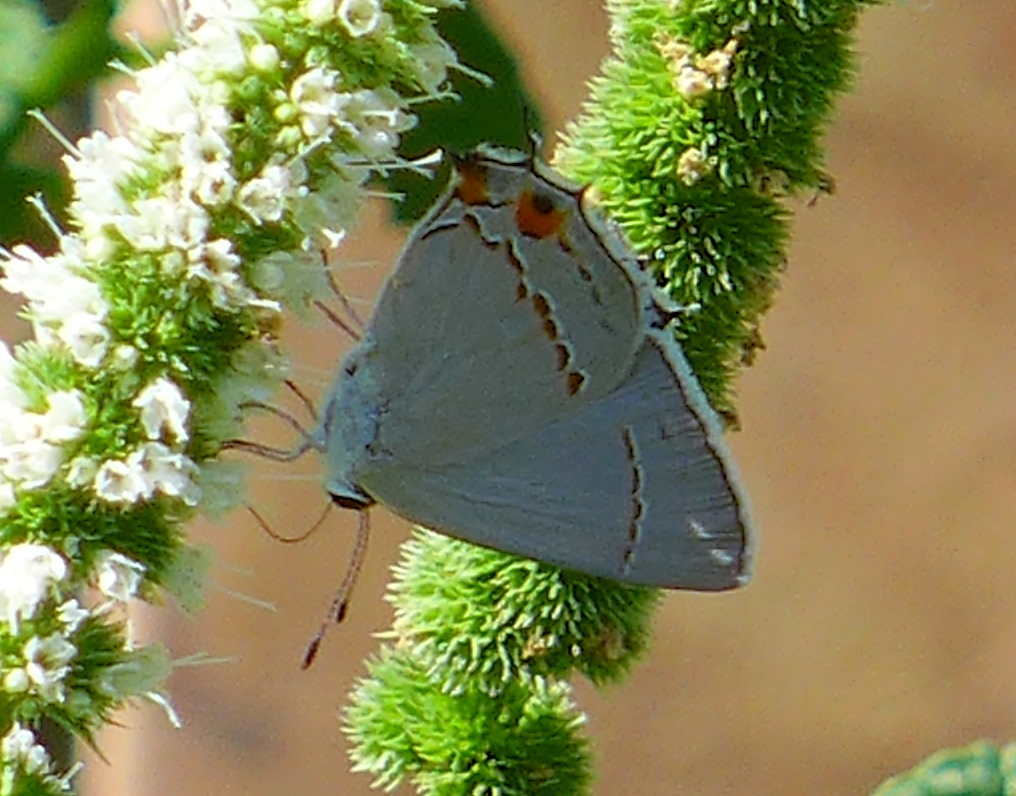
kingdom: Animalia
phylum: Arthropoda
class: Insecta
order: Lepidoptera
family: Lycaenidae
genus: Strymon
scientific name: Strymon melinus
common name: Gray hairstreak
